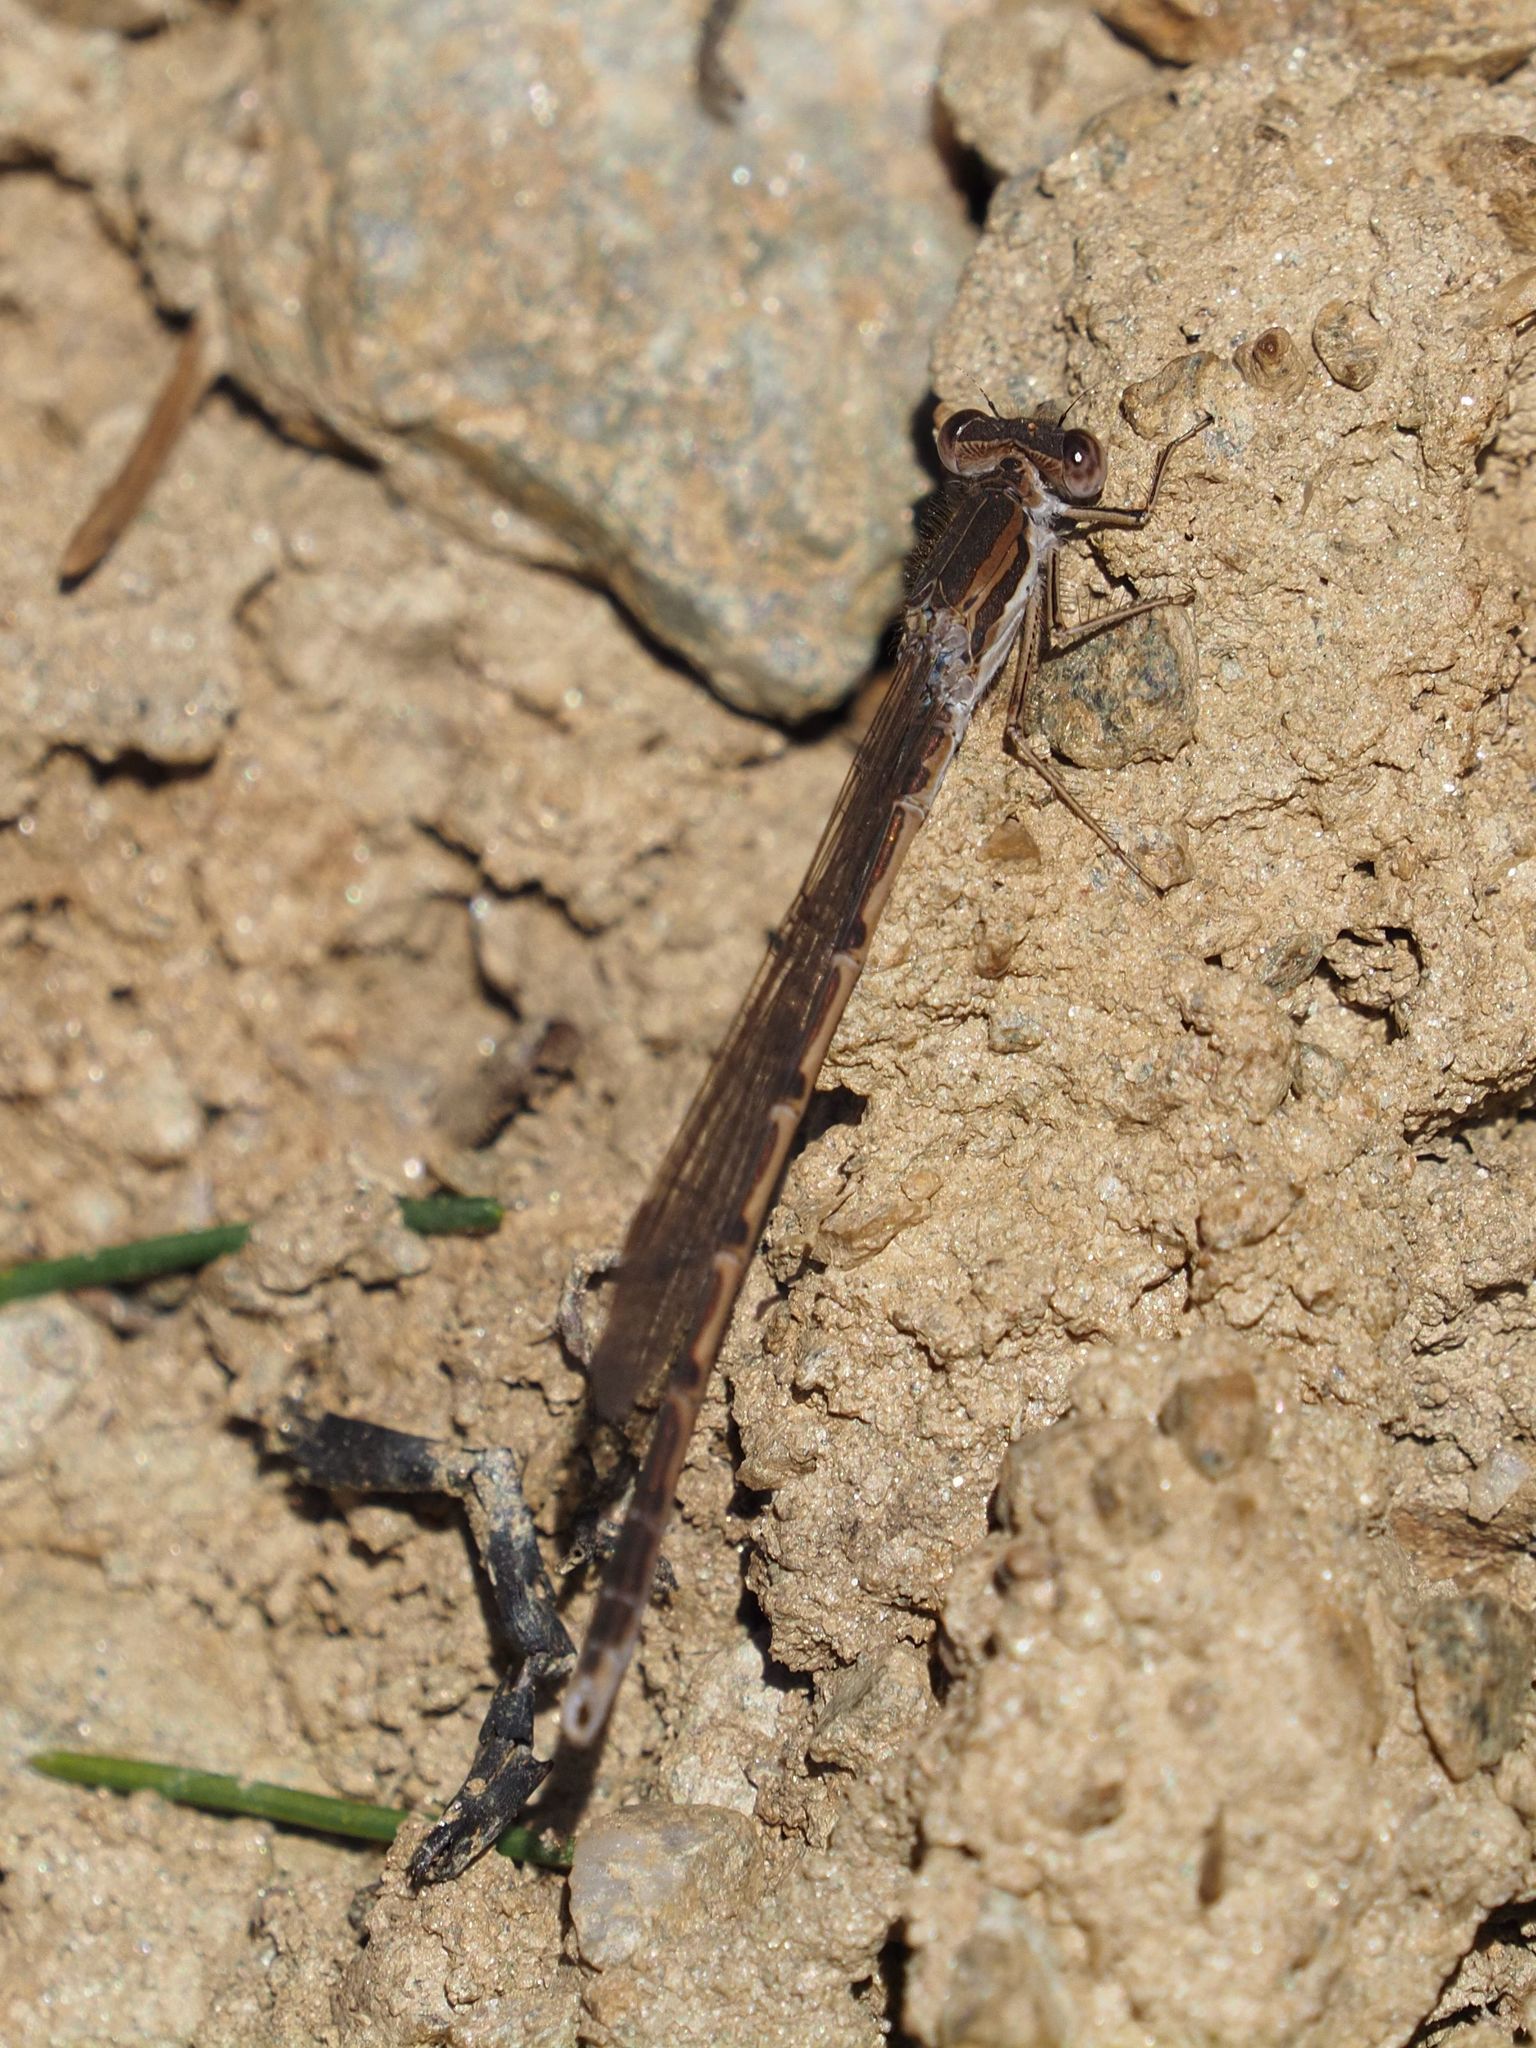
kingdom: Animalia
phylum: Arthropoda
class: Insecta
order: Odonata
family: Lestidae
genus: Sympecma
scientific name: Sympecma fusca
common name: Common winter damsel
